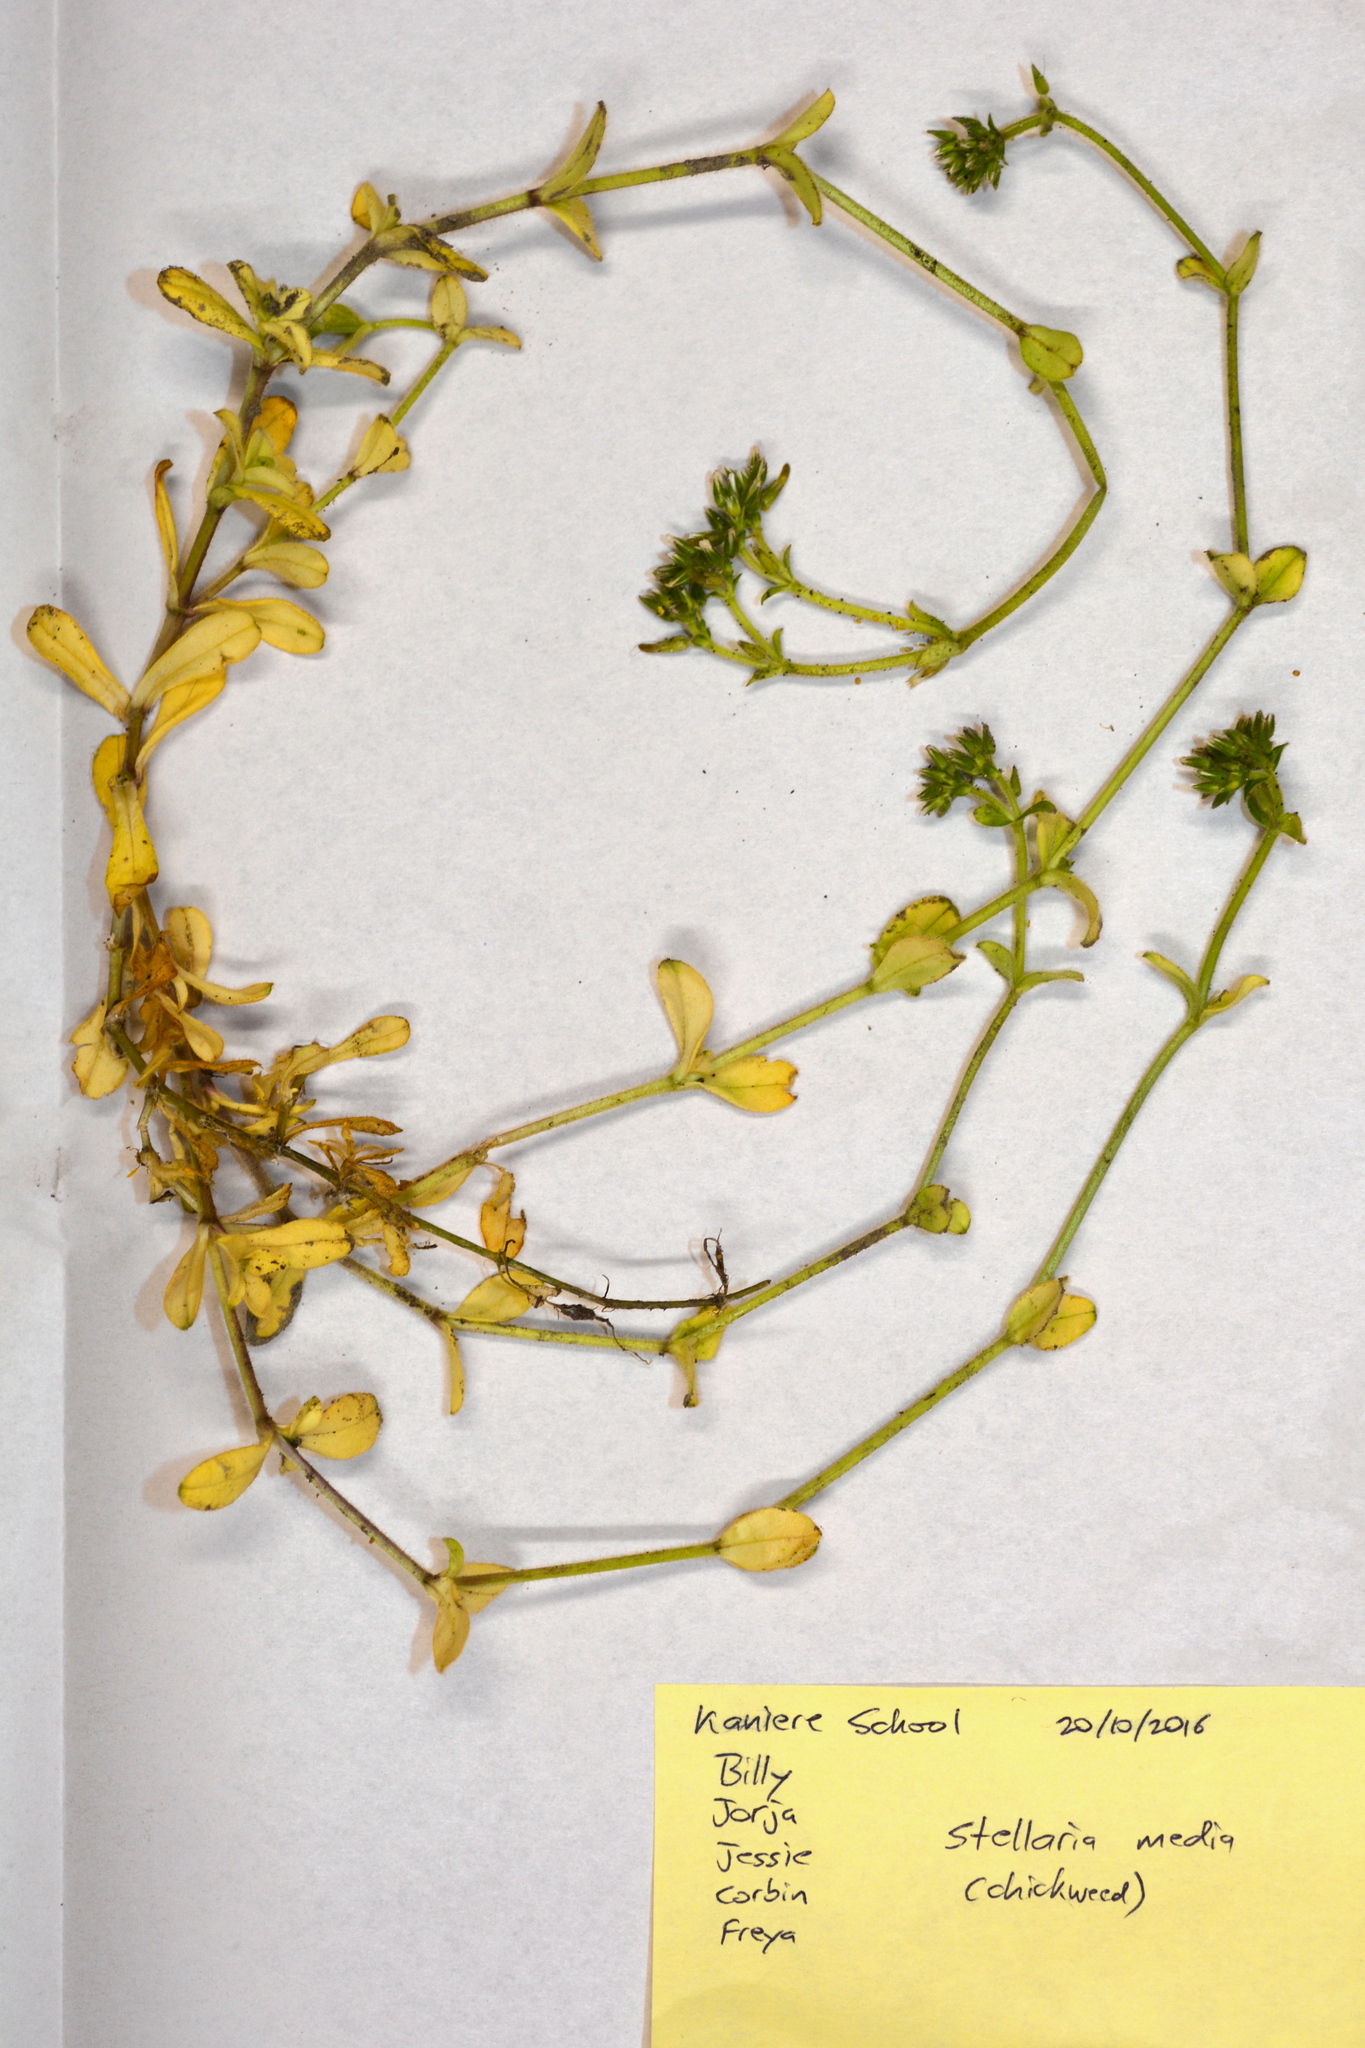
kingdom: Plantae
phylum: Tracheophyta
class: Magnoliopsida
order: Caryophyllales
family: Caryophyllaceae
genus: Cerastium
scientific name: Cerastium glomeratum
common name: Sticky chickweed
